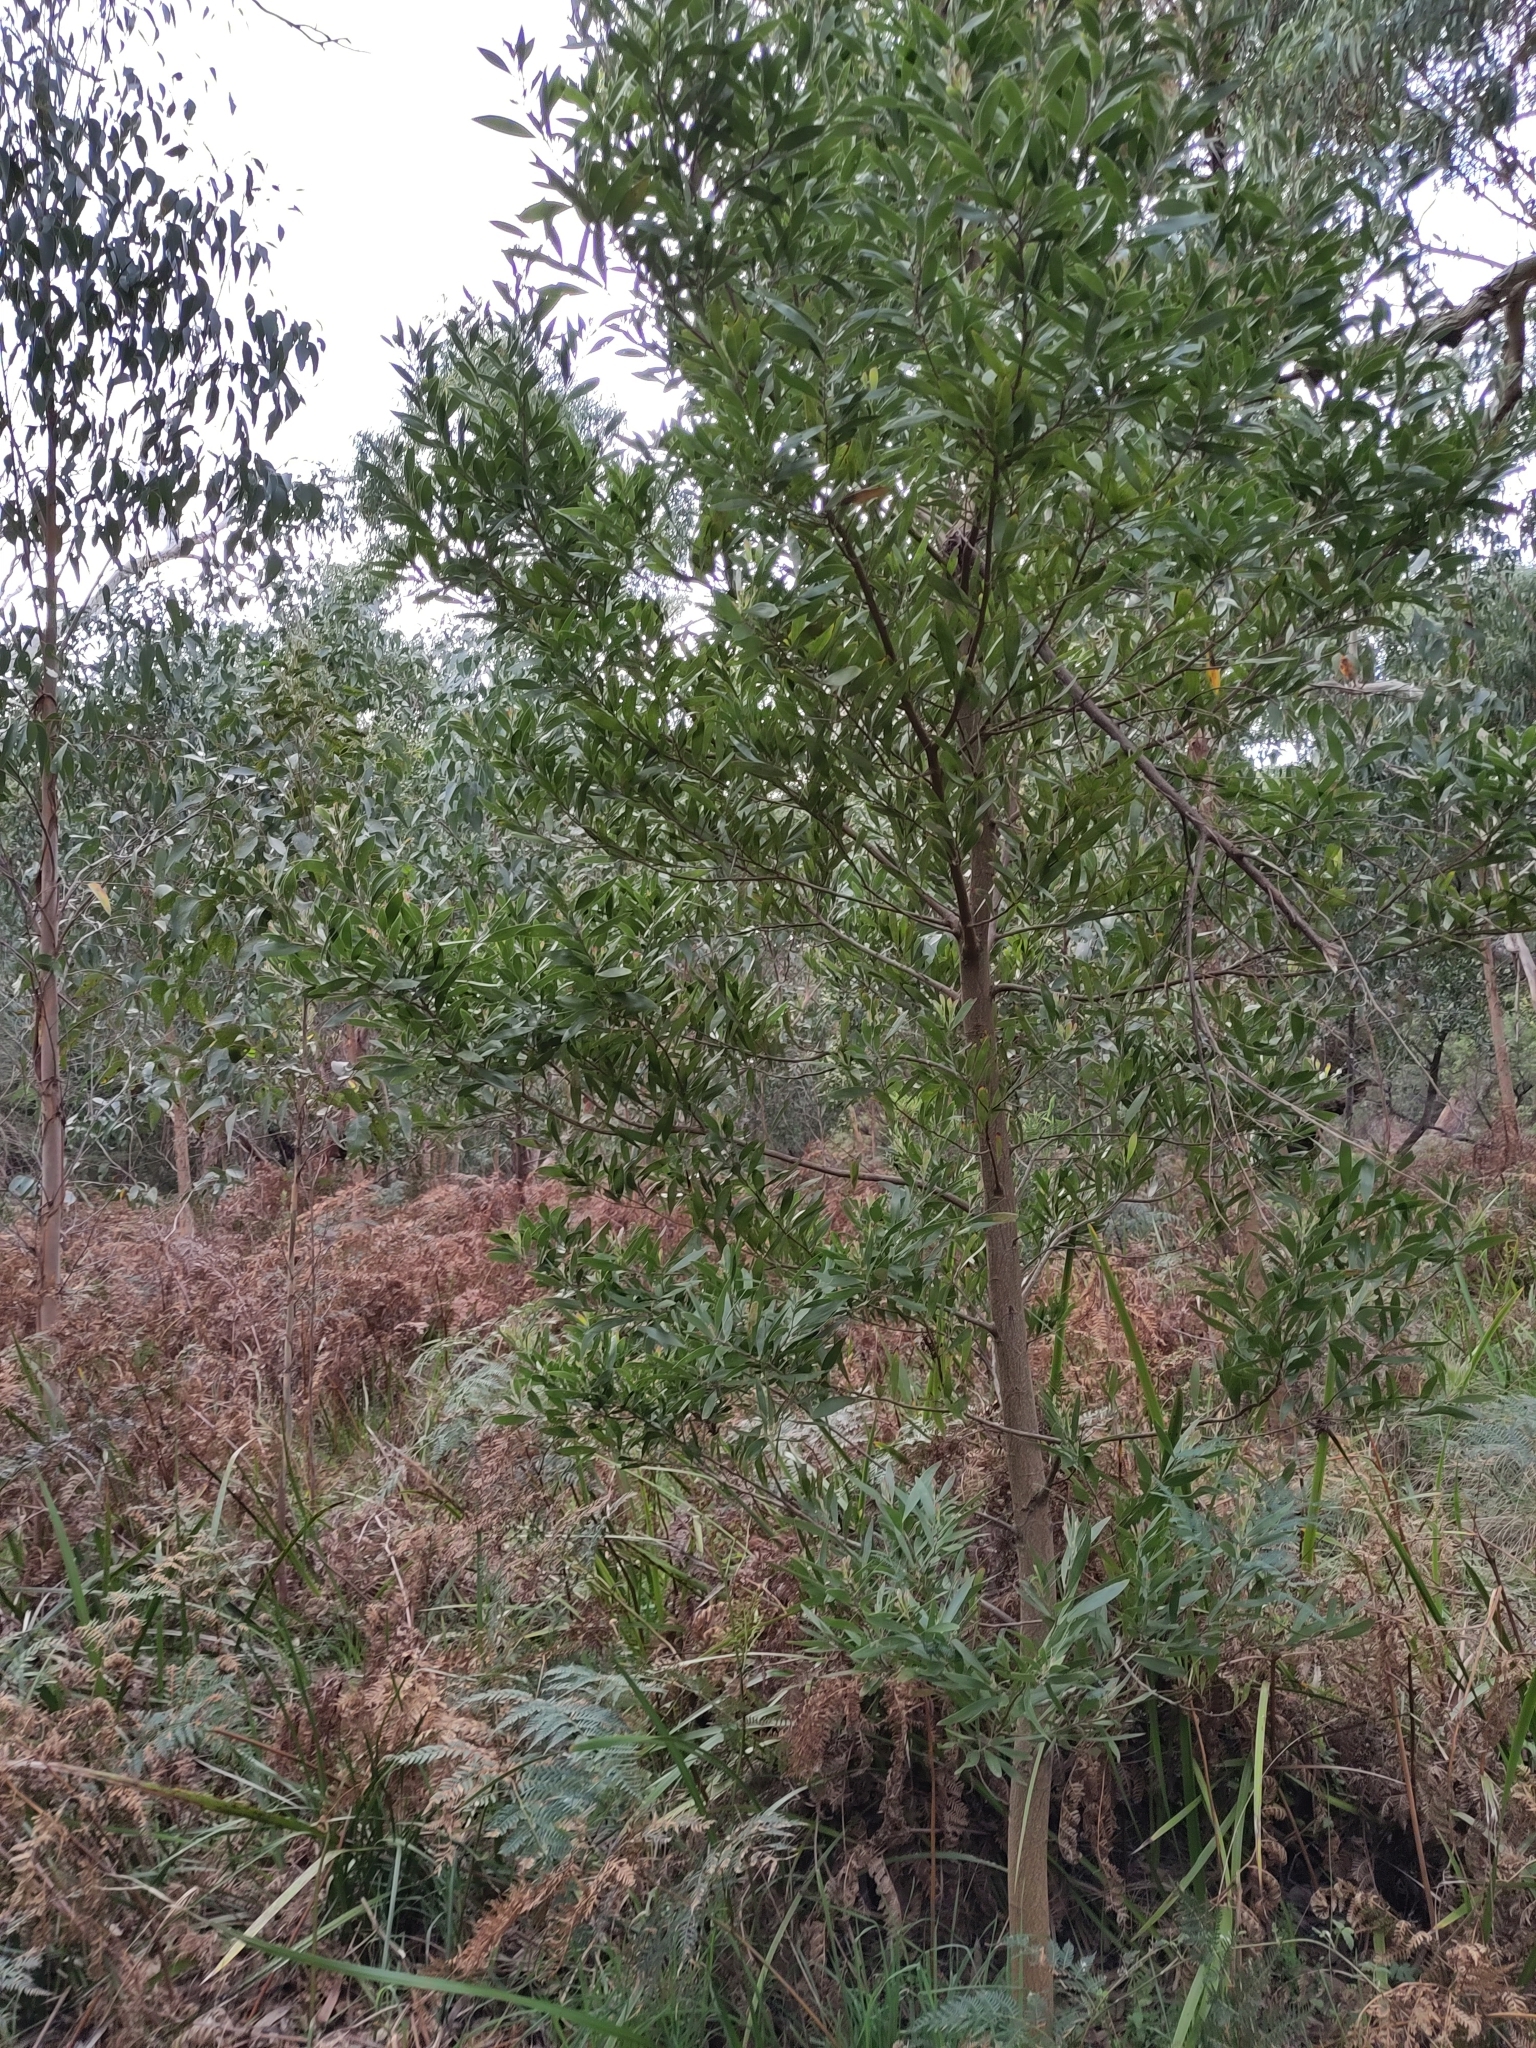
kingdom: Plantae
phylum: Tracheophyta
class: Magnoliopsida
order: Fabales
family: Fabaceae
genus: Acacia
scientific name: Acacia melanoxylon
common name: Blackwood
